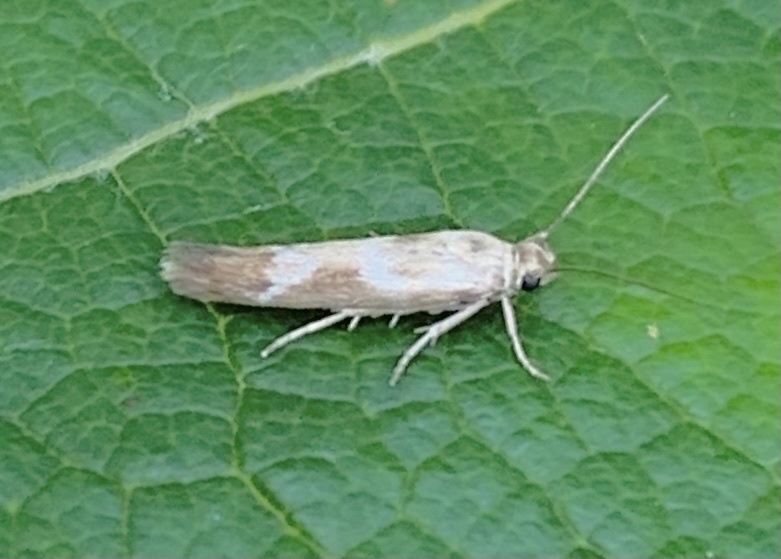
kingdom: Animalia
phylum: Arthropoda
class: Insecta
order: Lepidoptera
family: Scythrididae
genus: Scythris
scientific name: Scythris trivinctella
